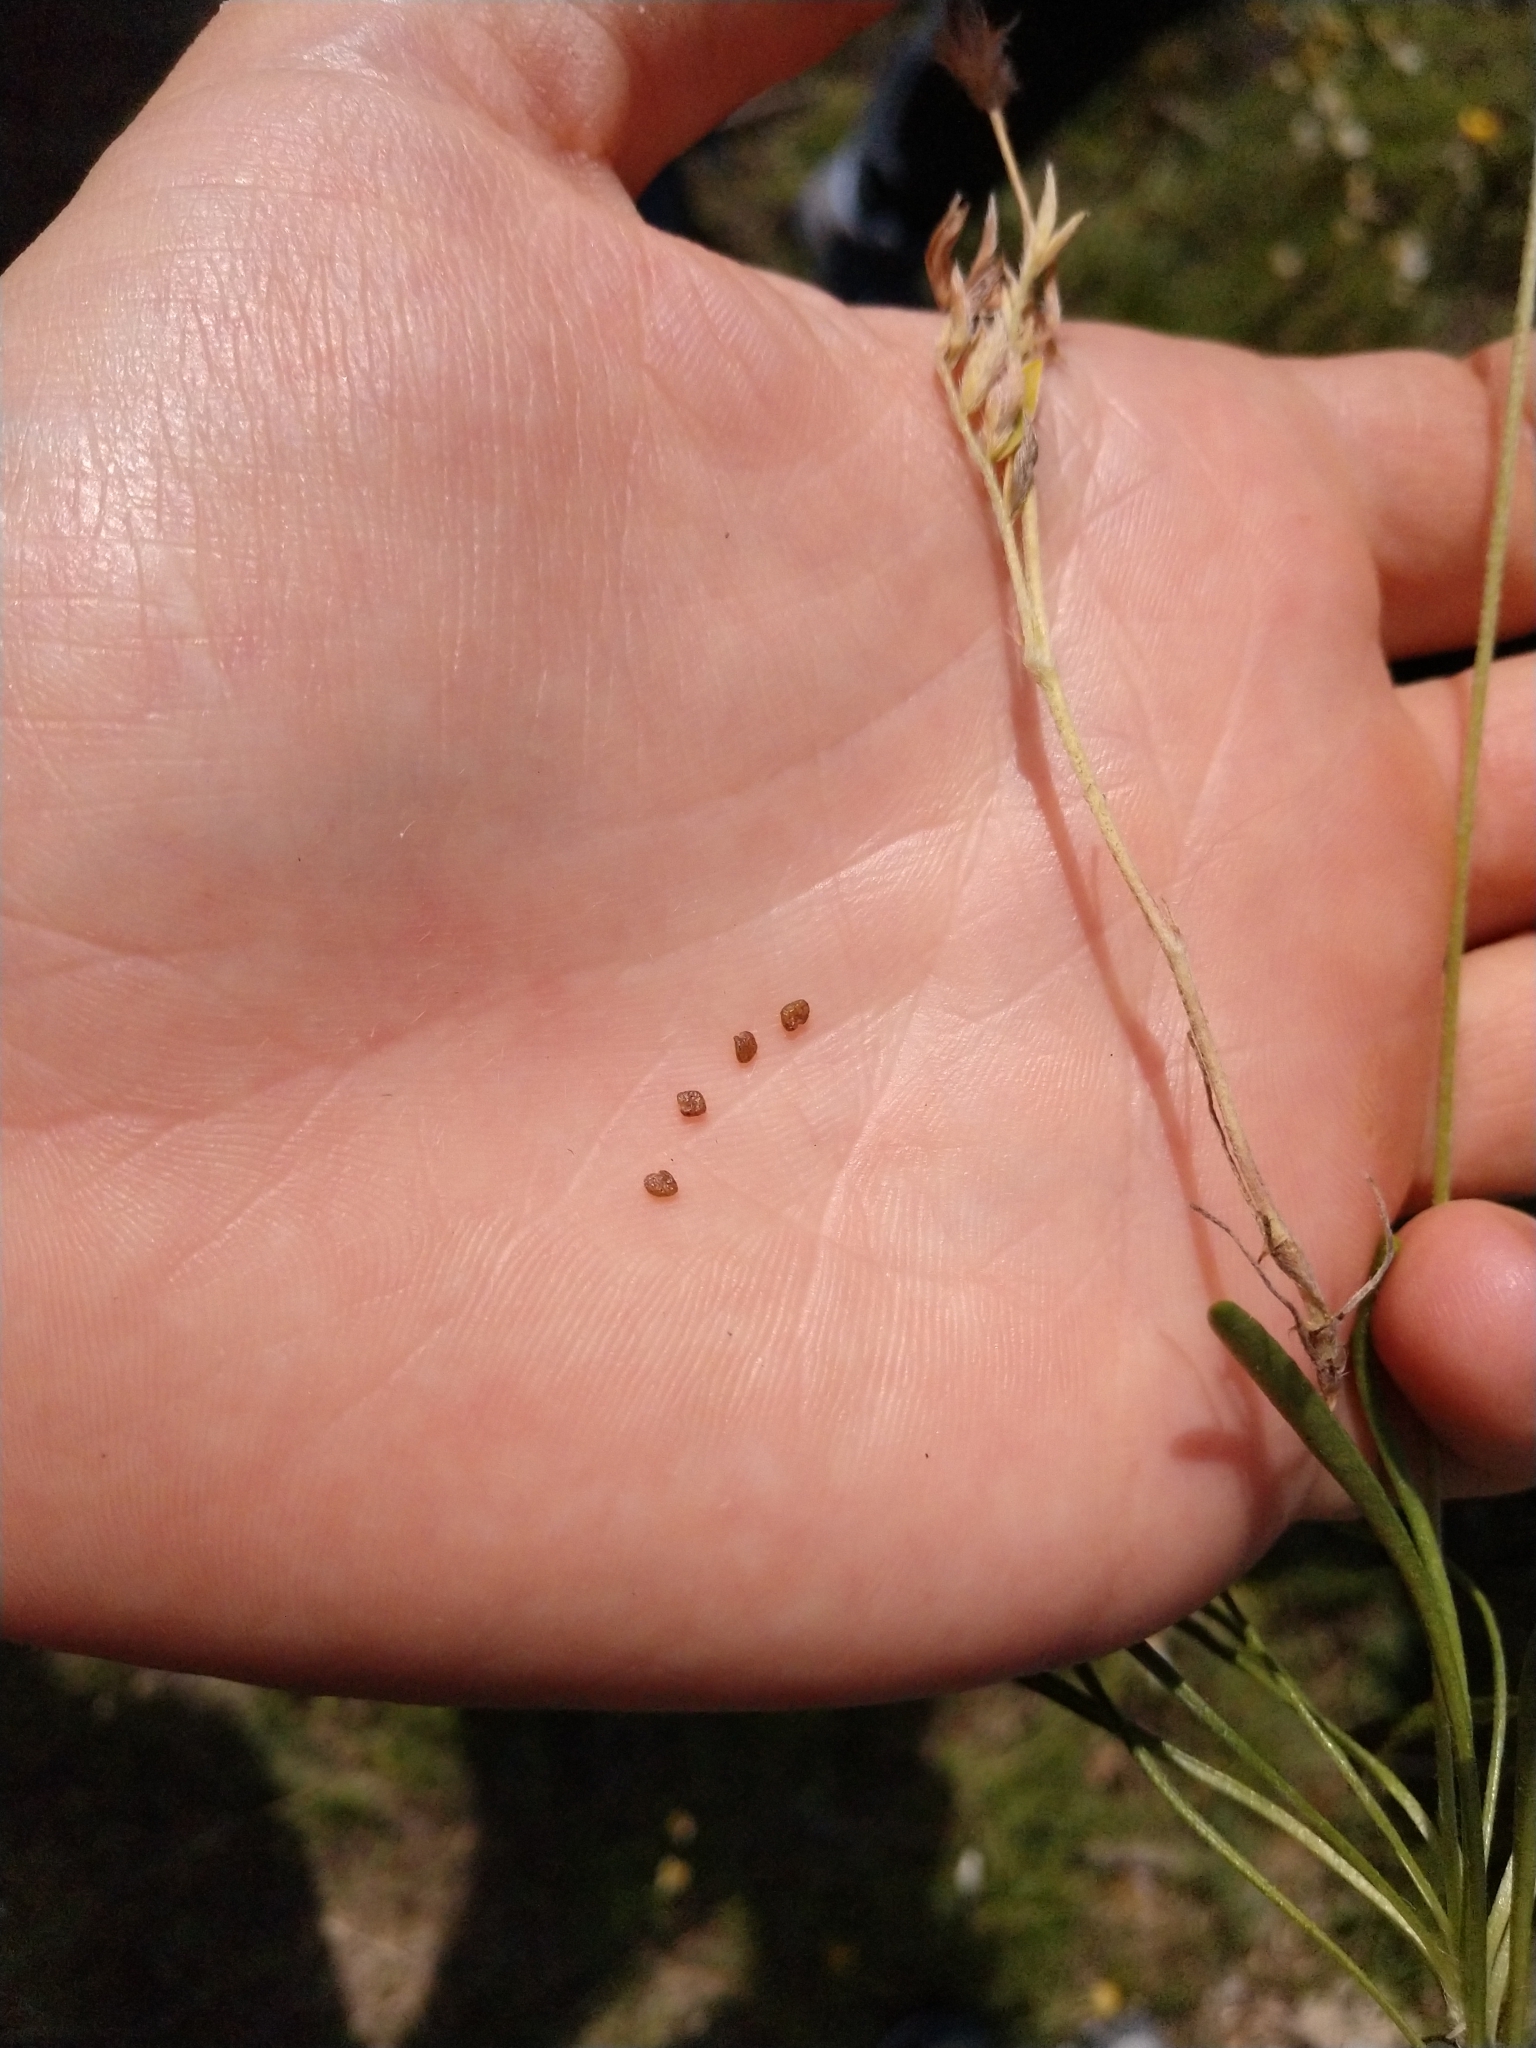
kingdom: Plantae
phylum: Tracheophyta
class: Magnoliopsida
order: Fabales
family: Fabaceae
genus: Astragalus
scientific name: Astragalus wrightii
